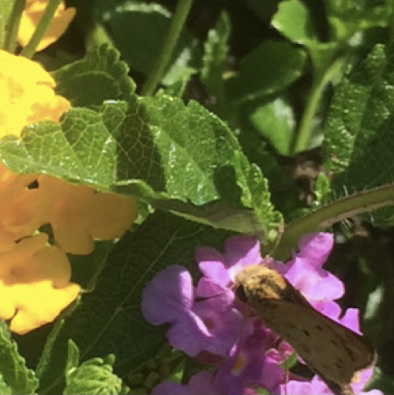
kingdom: Animalia
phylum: Arthropoda
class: Insecta
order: Lepidoptera
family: Hesperiidae
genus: Hylephila
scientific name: Hylephila phyleus
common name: Fiery skipper
